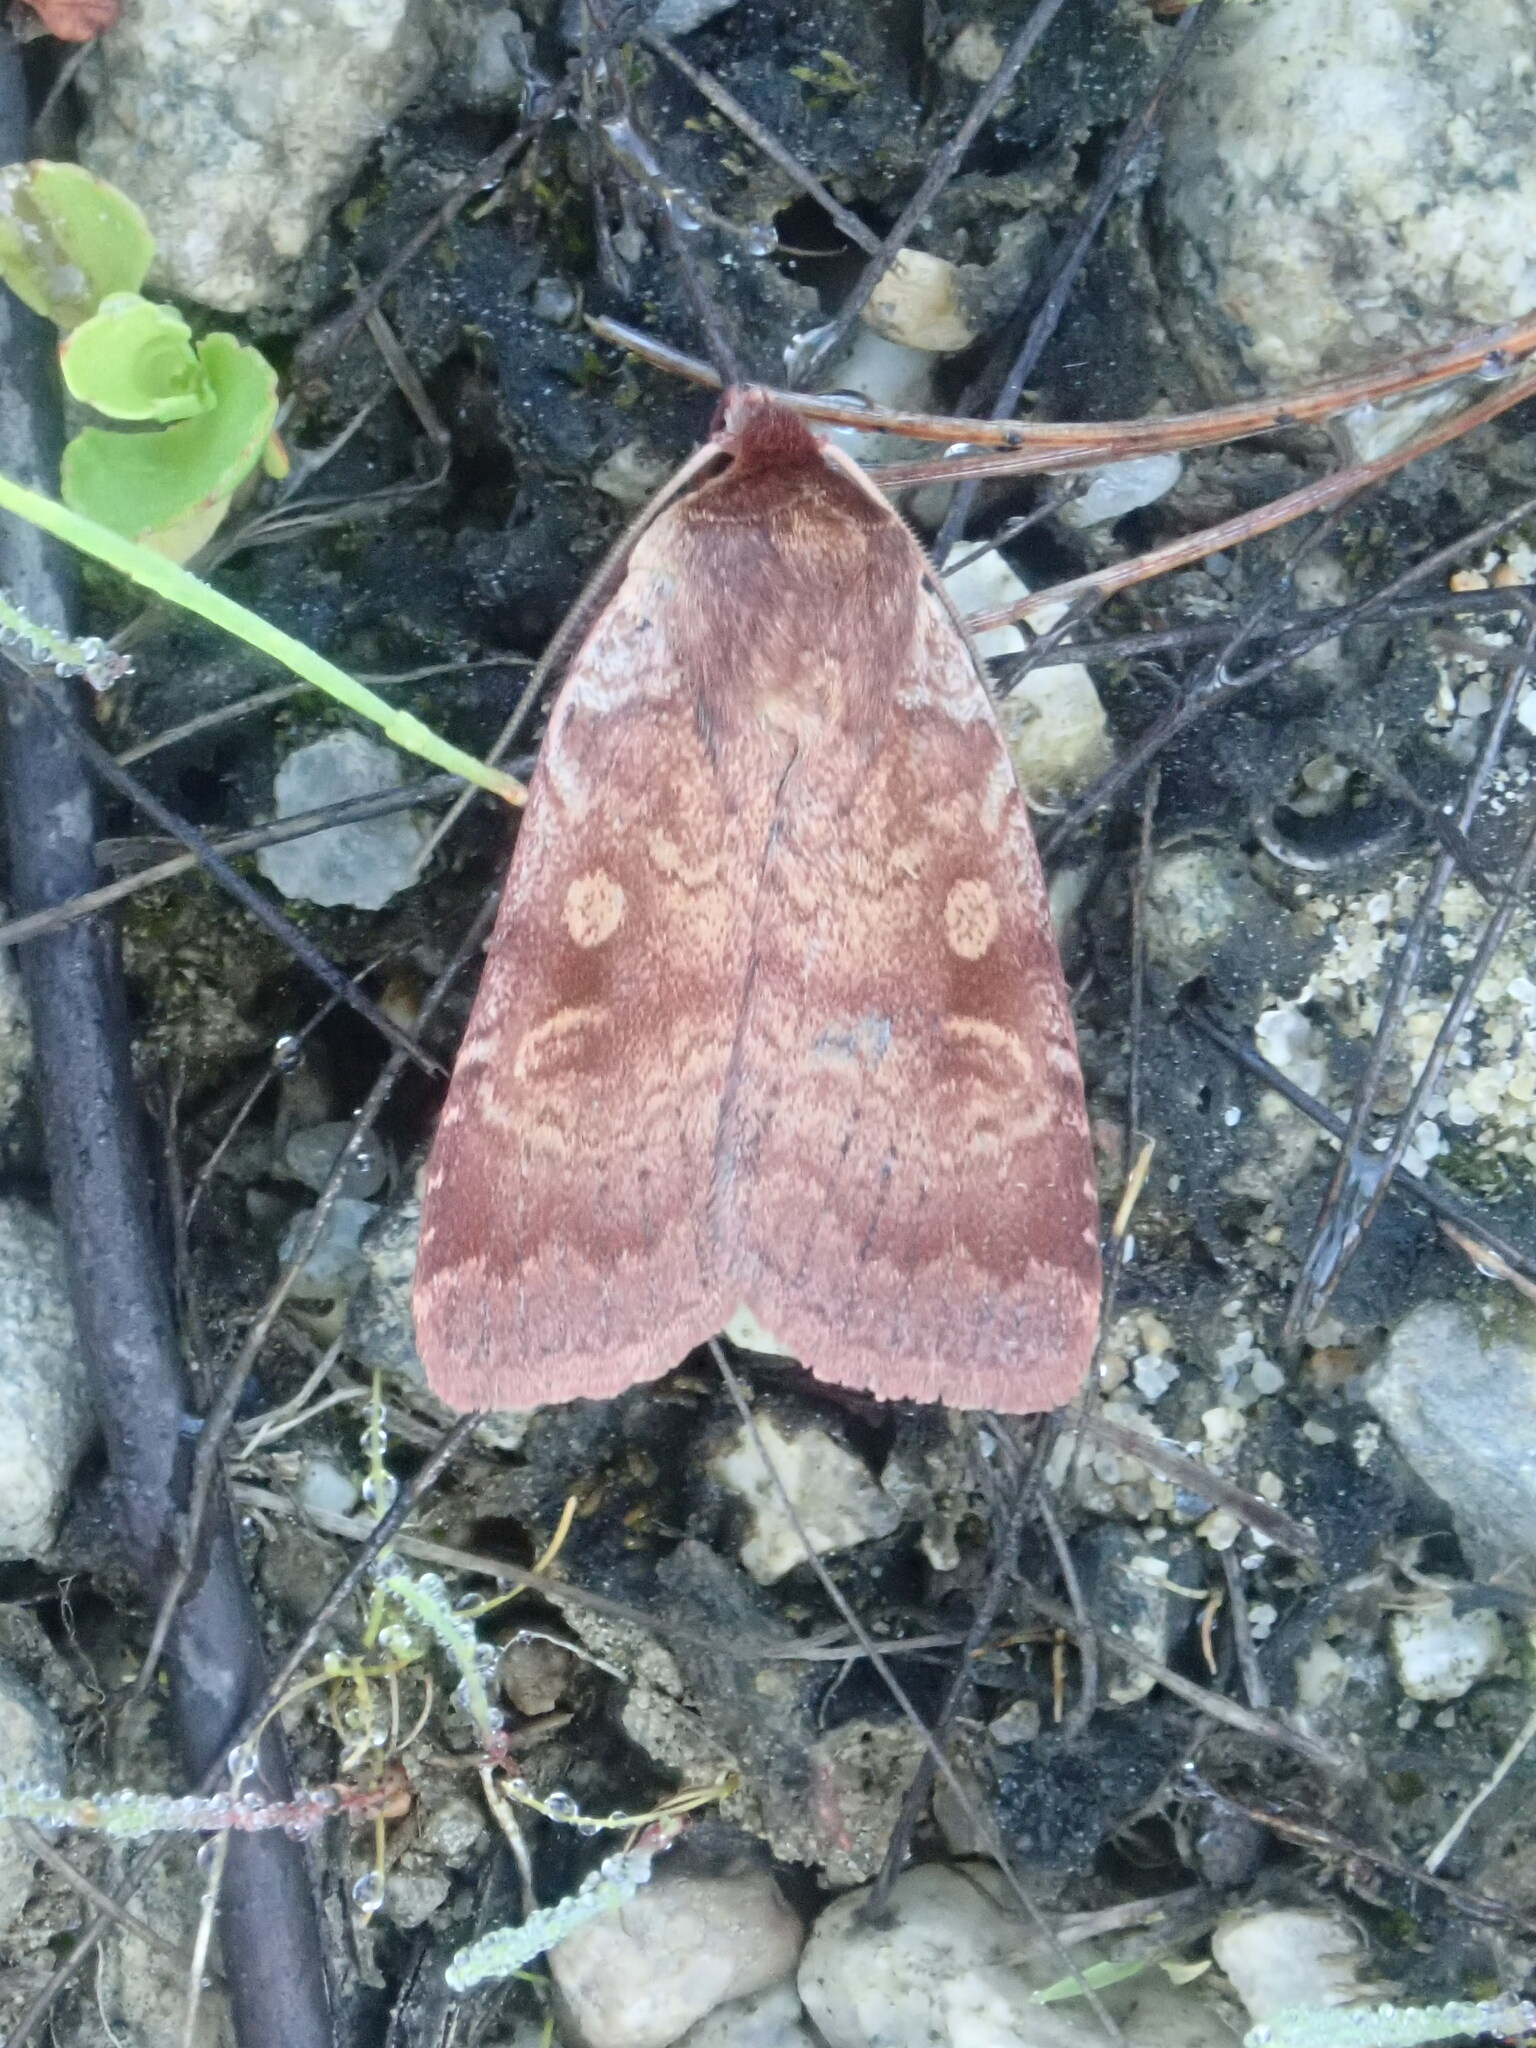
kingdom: Animalia
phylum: Arthropoda
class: Insecta
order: Lepidoptera
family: Noctuidae
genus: Lycophotia
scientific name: Lycophotia phyllophora
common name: Lycophotia moth
